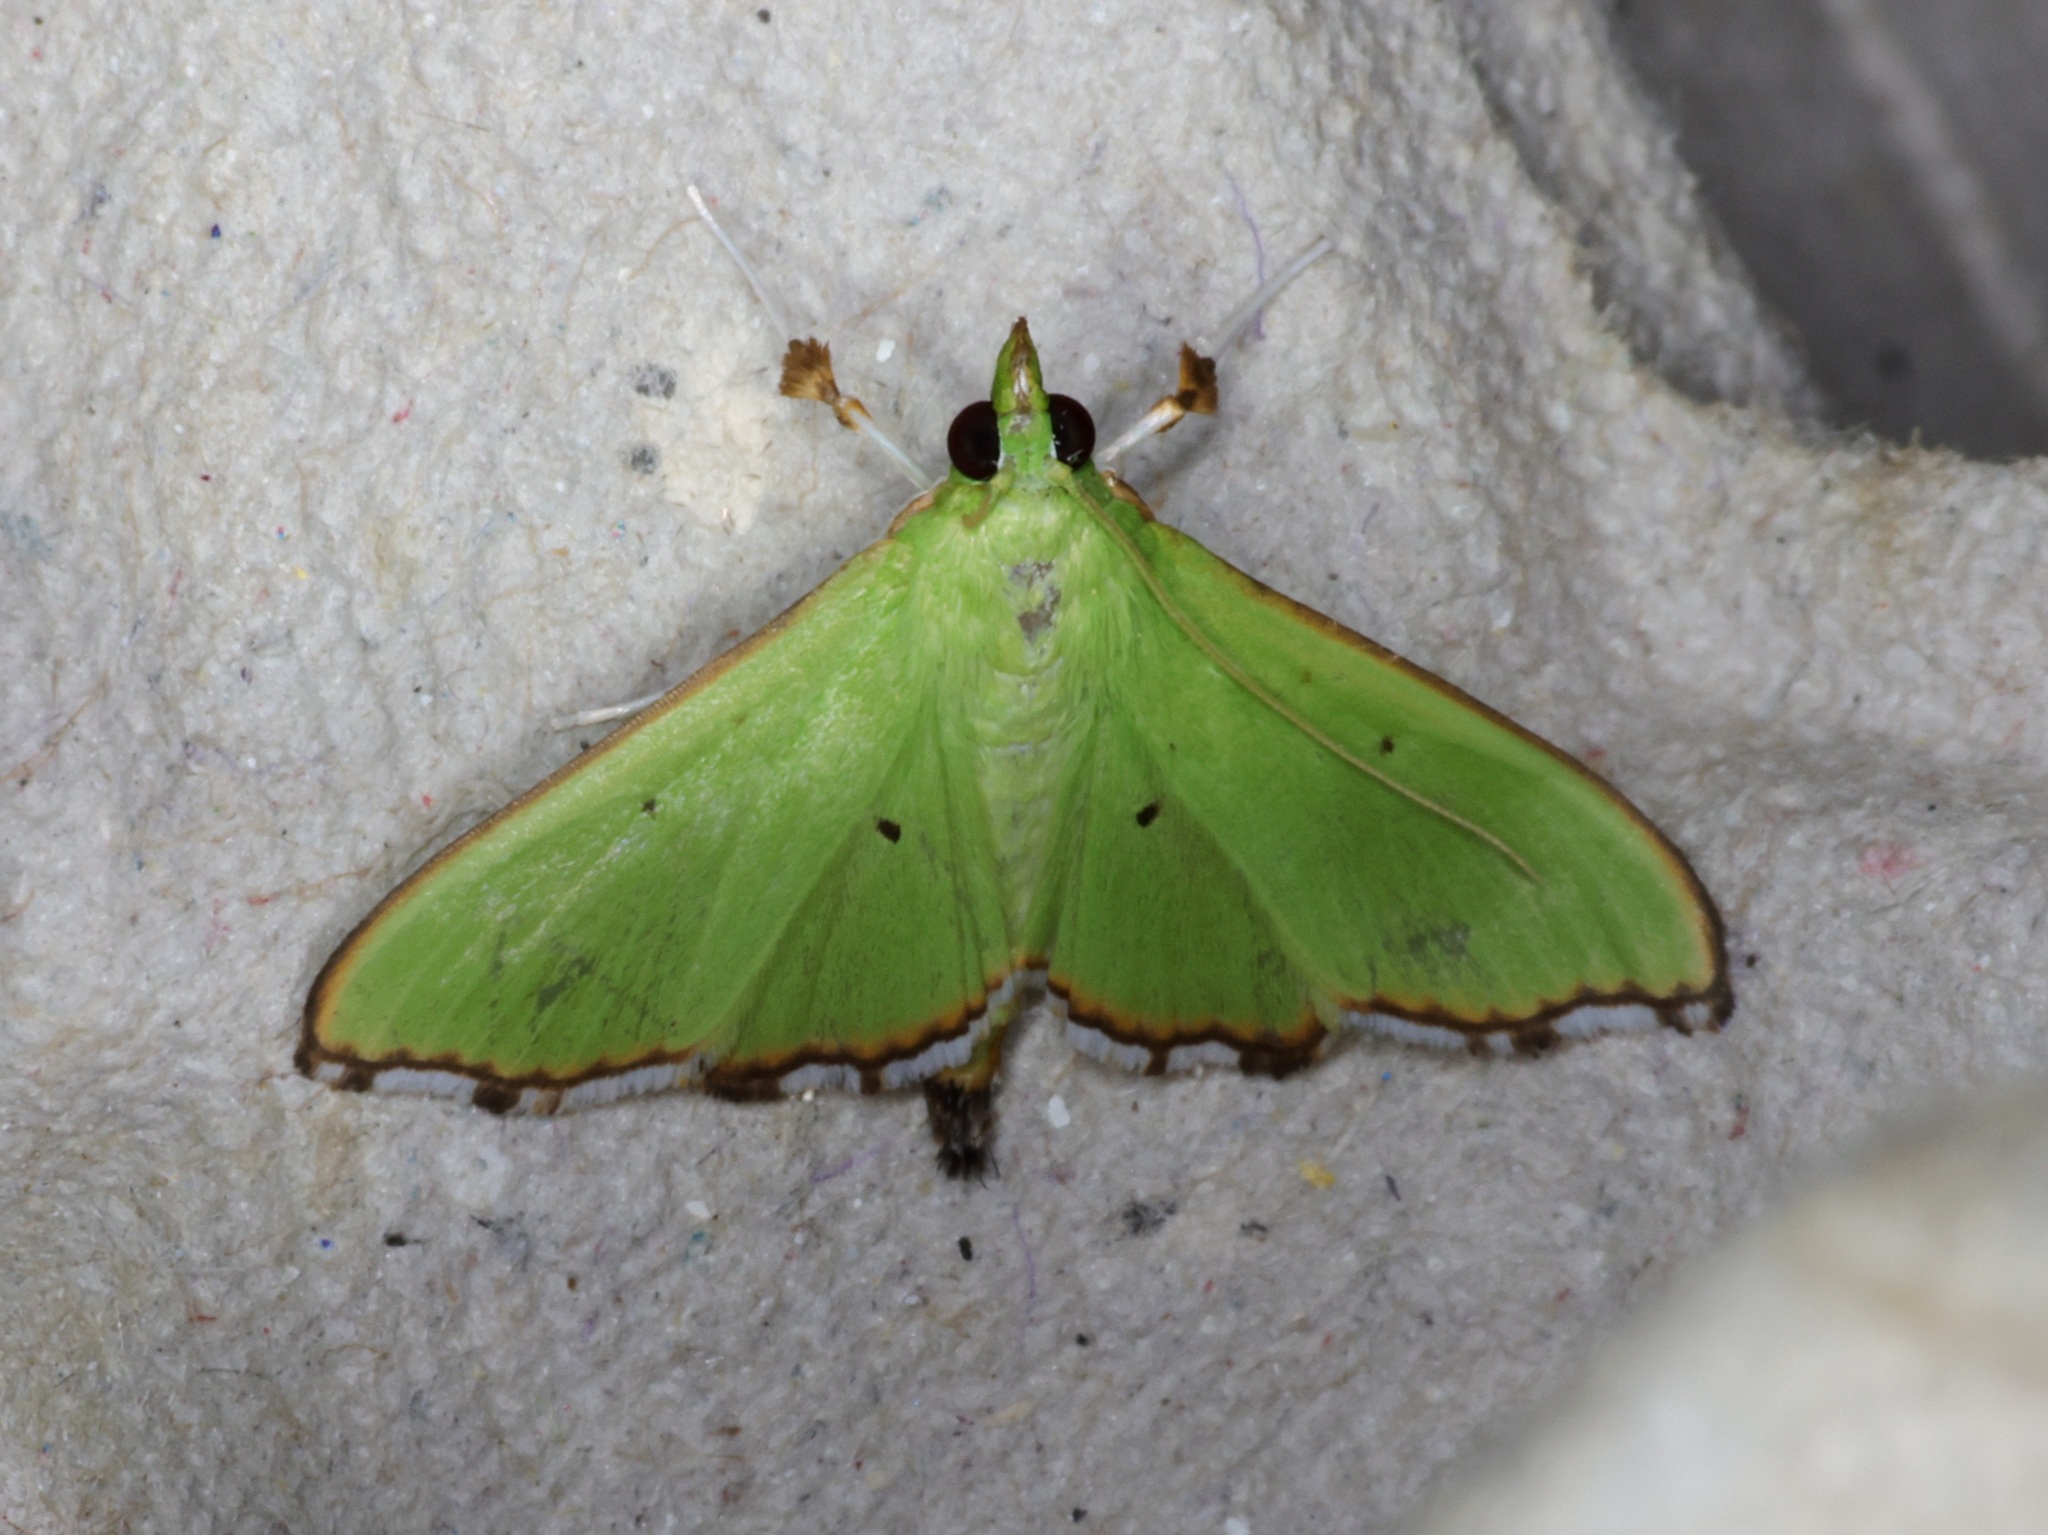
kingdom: Animalia
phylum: Arthropoda
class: Insecta
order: Lepidoptera
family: Crambidae
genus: Parotis
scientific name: Parotis suralis
